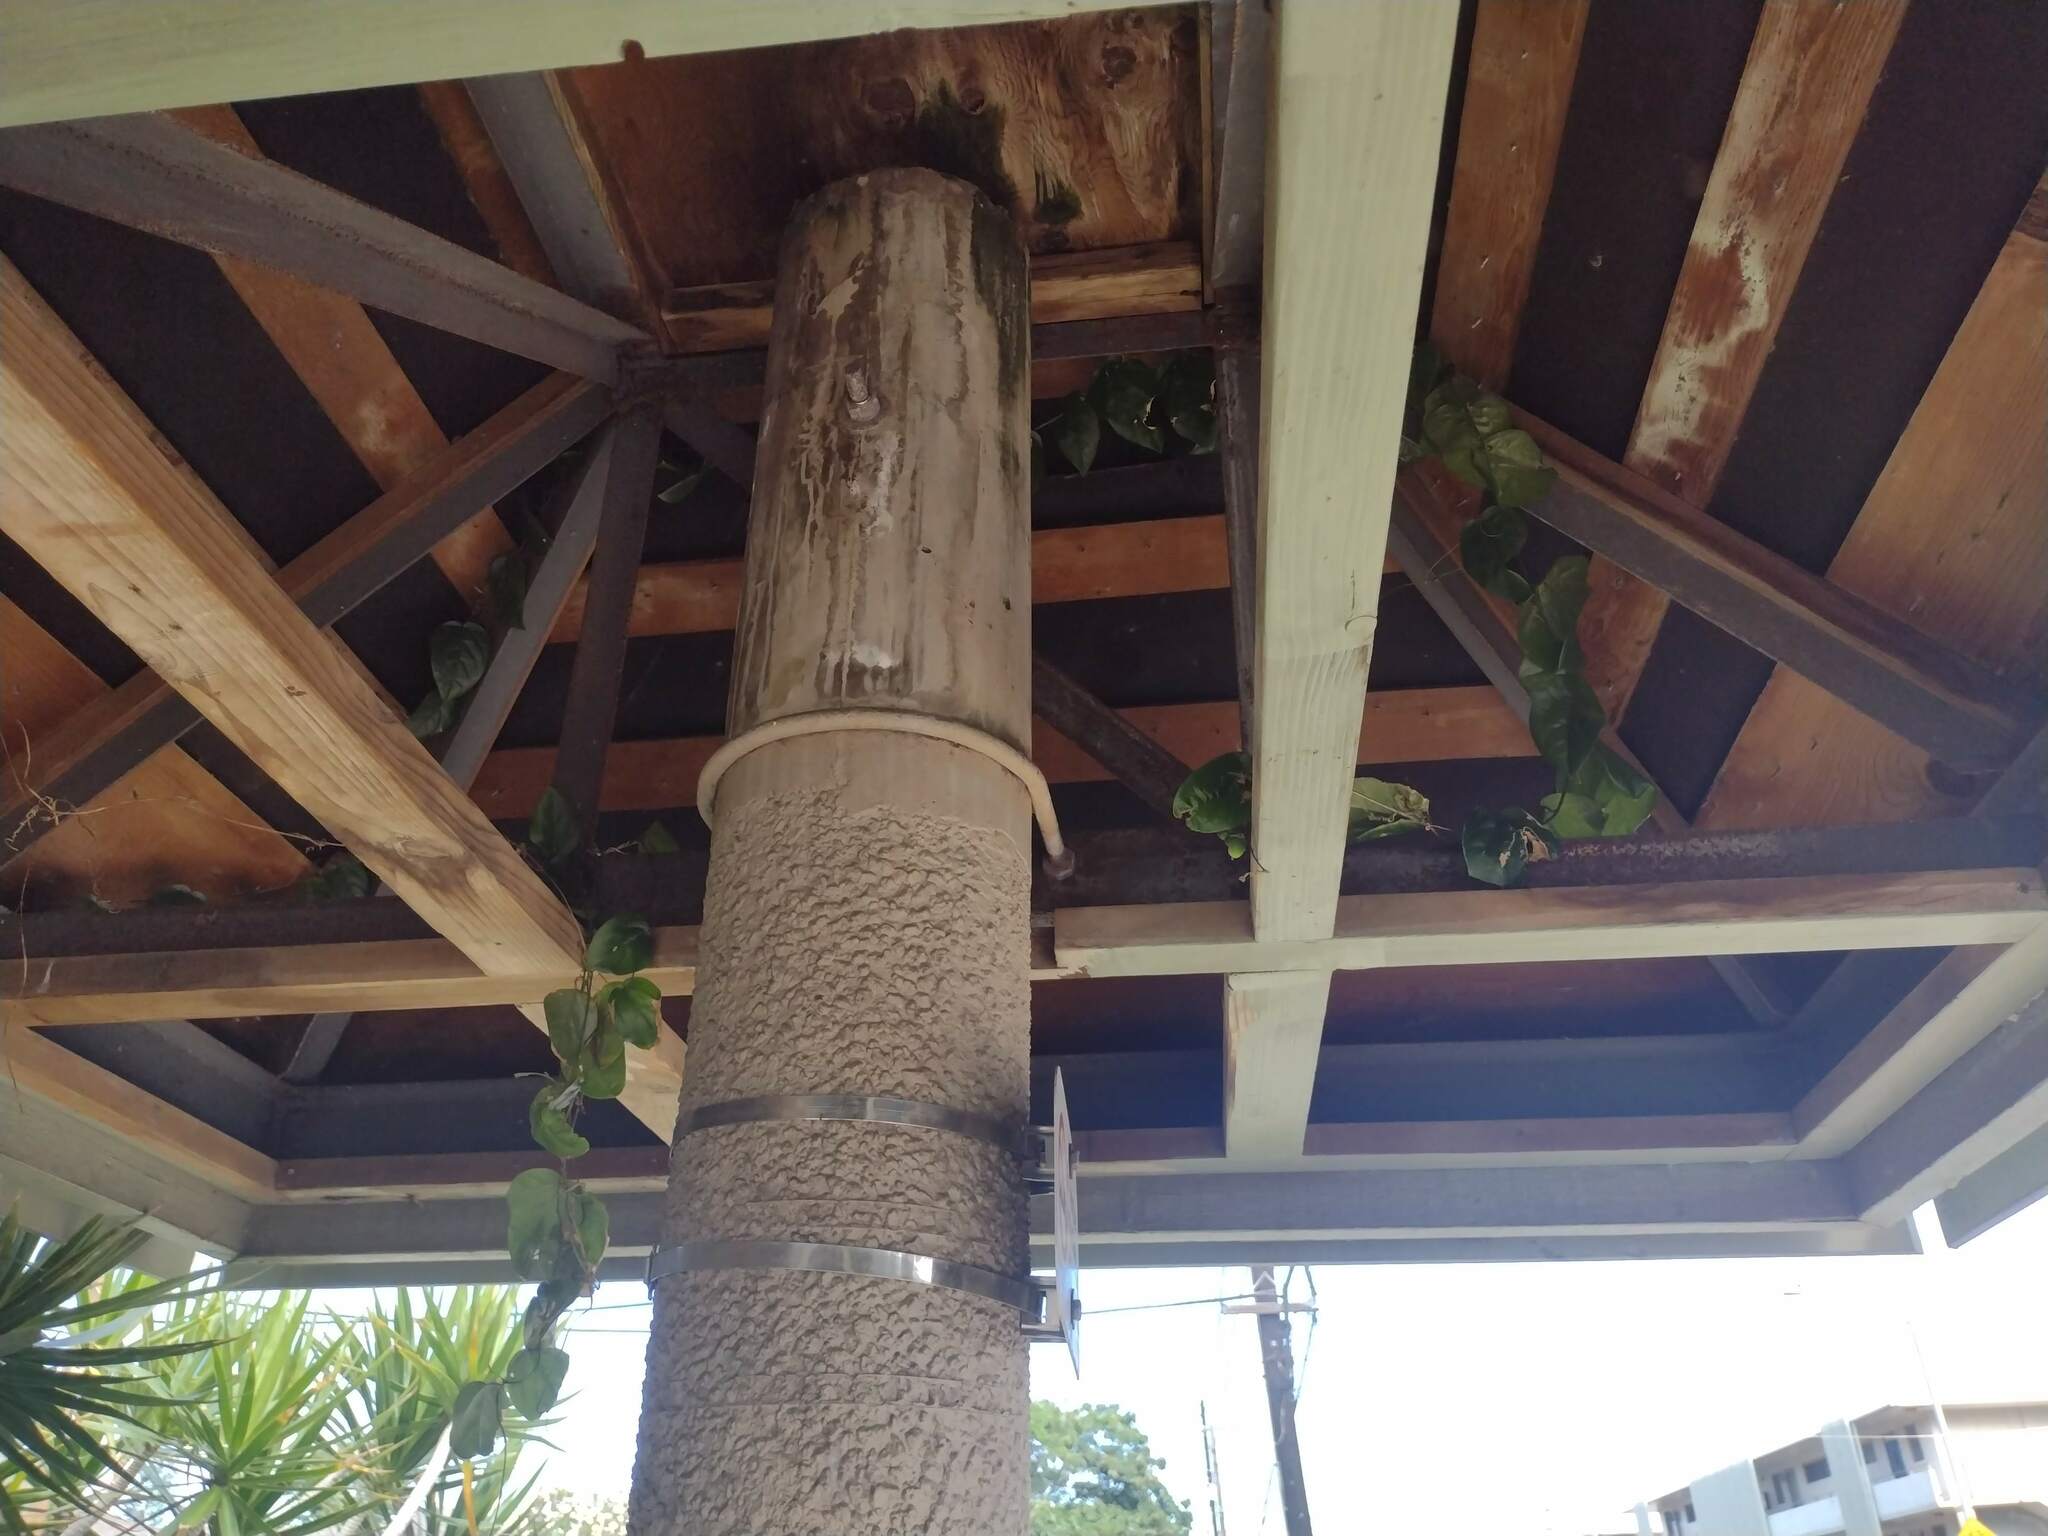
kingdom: Plantae
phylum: Tracheophyta
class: Magnoliopsida
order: Malpighiales
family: Passifloraceae
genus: Passiflora
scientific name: Passiflora suberosa
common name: Wild passionfruit
